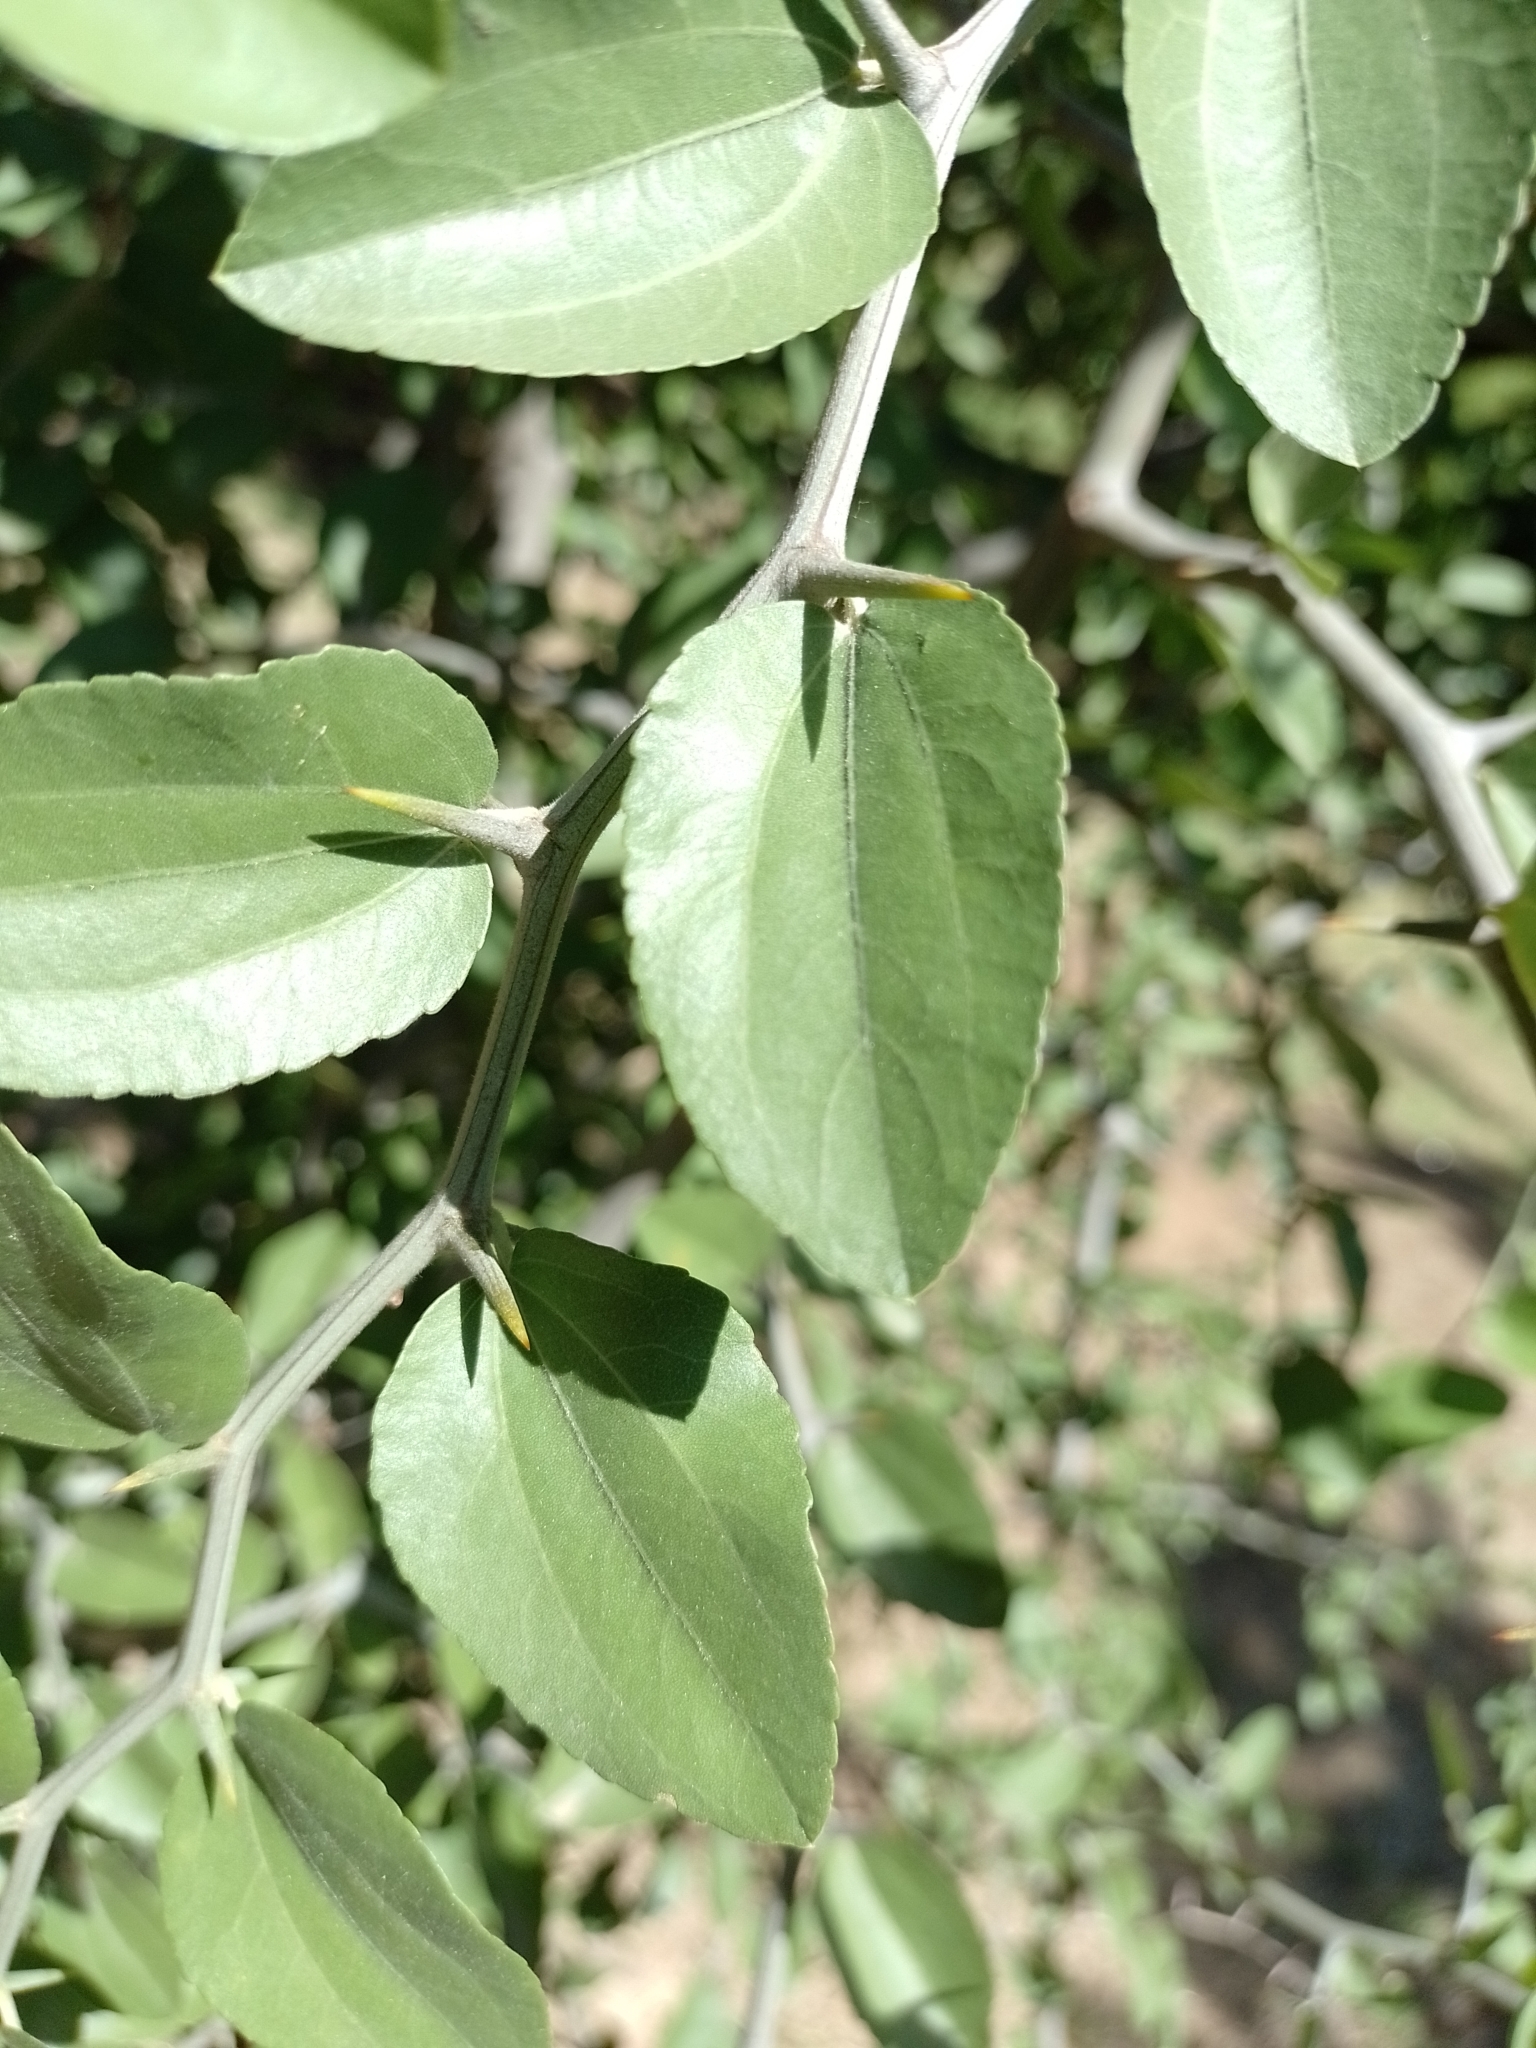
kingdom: Plantae
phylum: Tracheophyta
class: Magnoliopsida
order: Rosales
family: Rhamnaceae
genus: Sarcomphalus
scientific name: Sarcomphalus mistol
